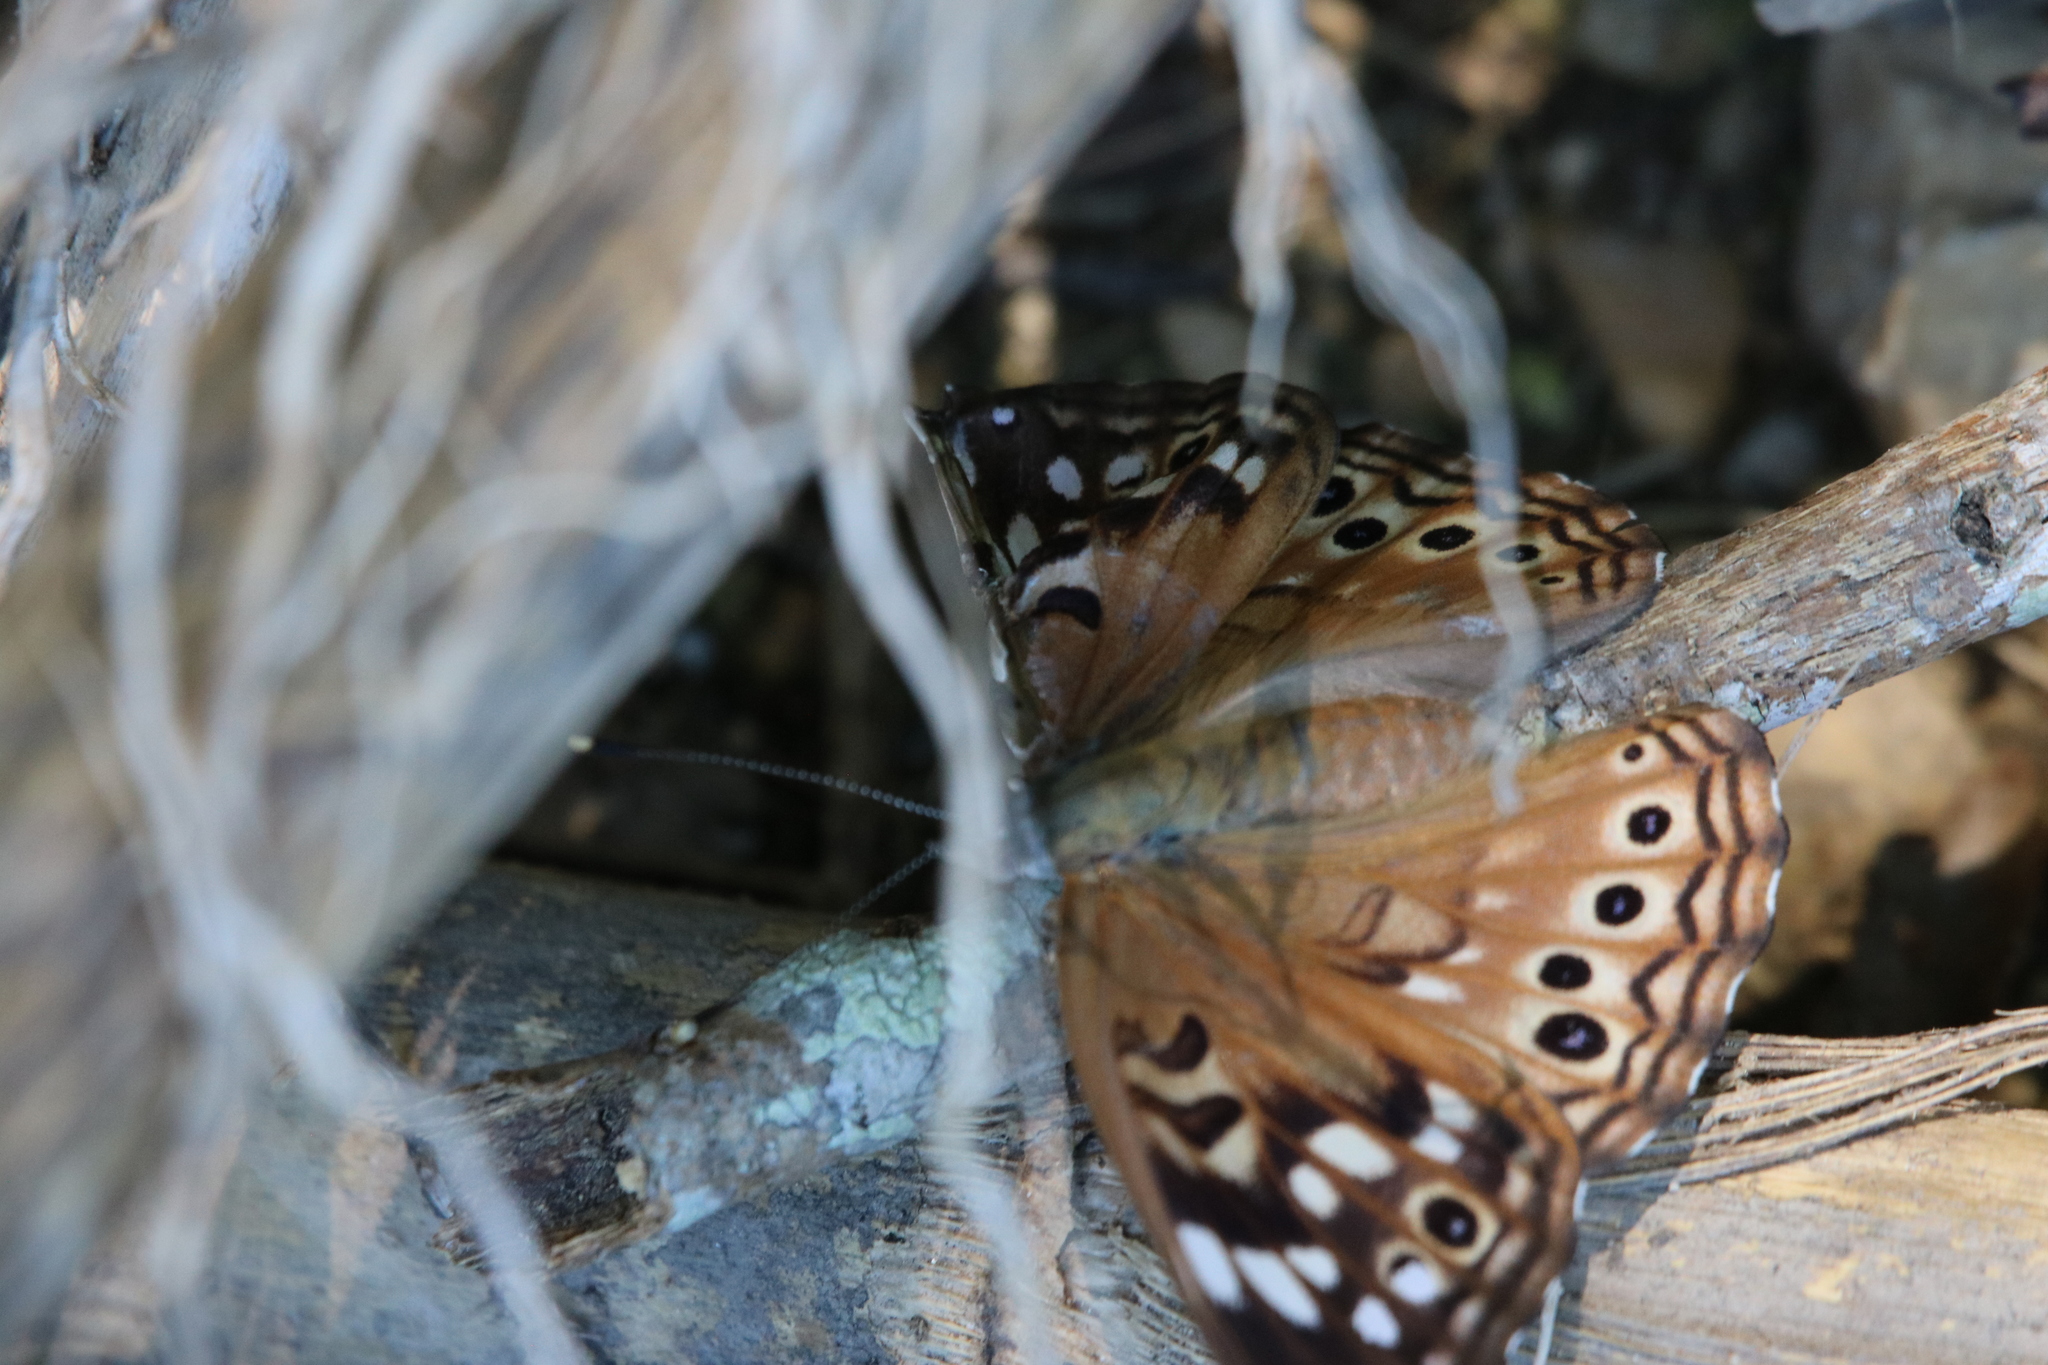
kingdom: Animalia
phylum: Arthropoda
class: Insecta
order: Lepidoptera
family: Nymphalidae
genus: Asterocampa
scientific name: Asterocampa celtis
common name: Hackberry emperor
